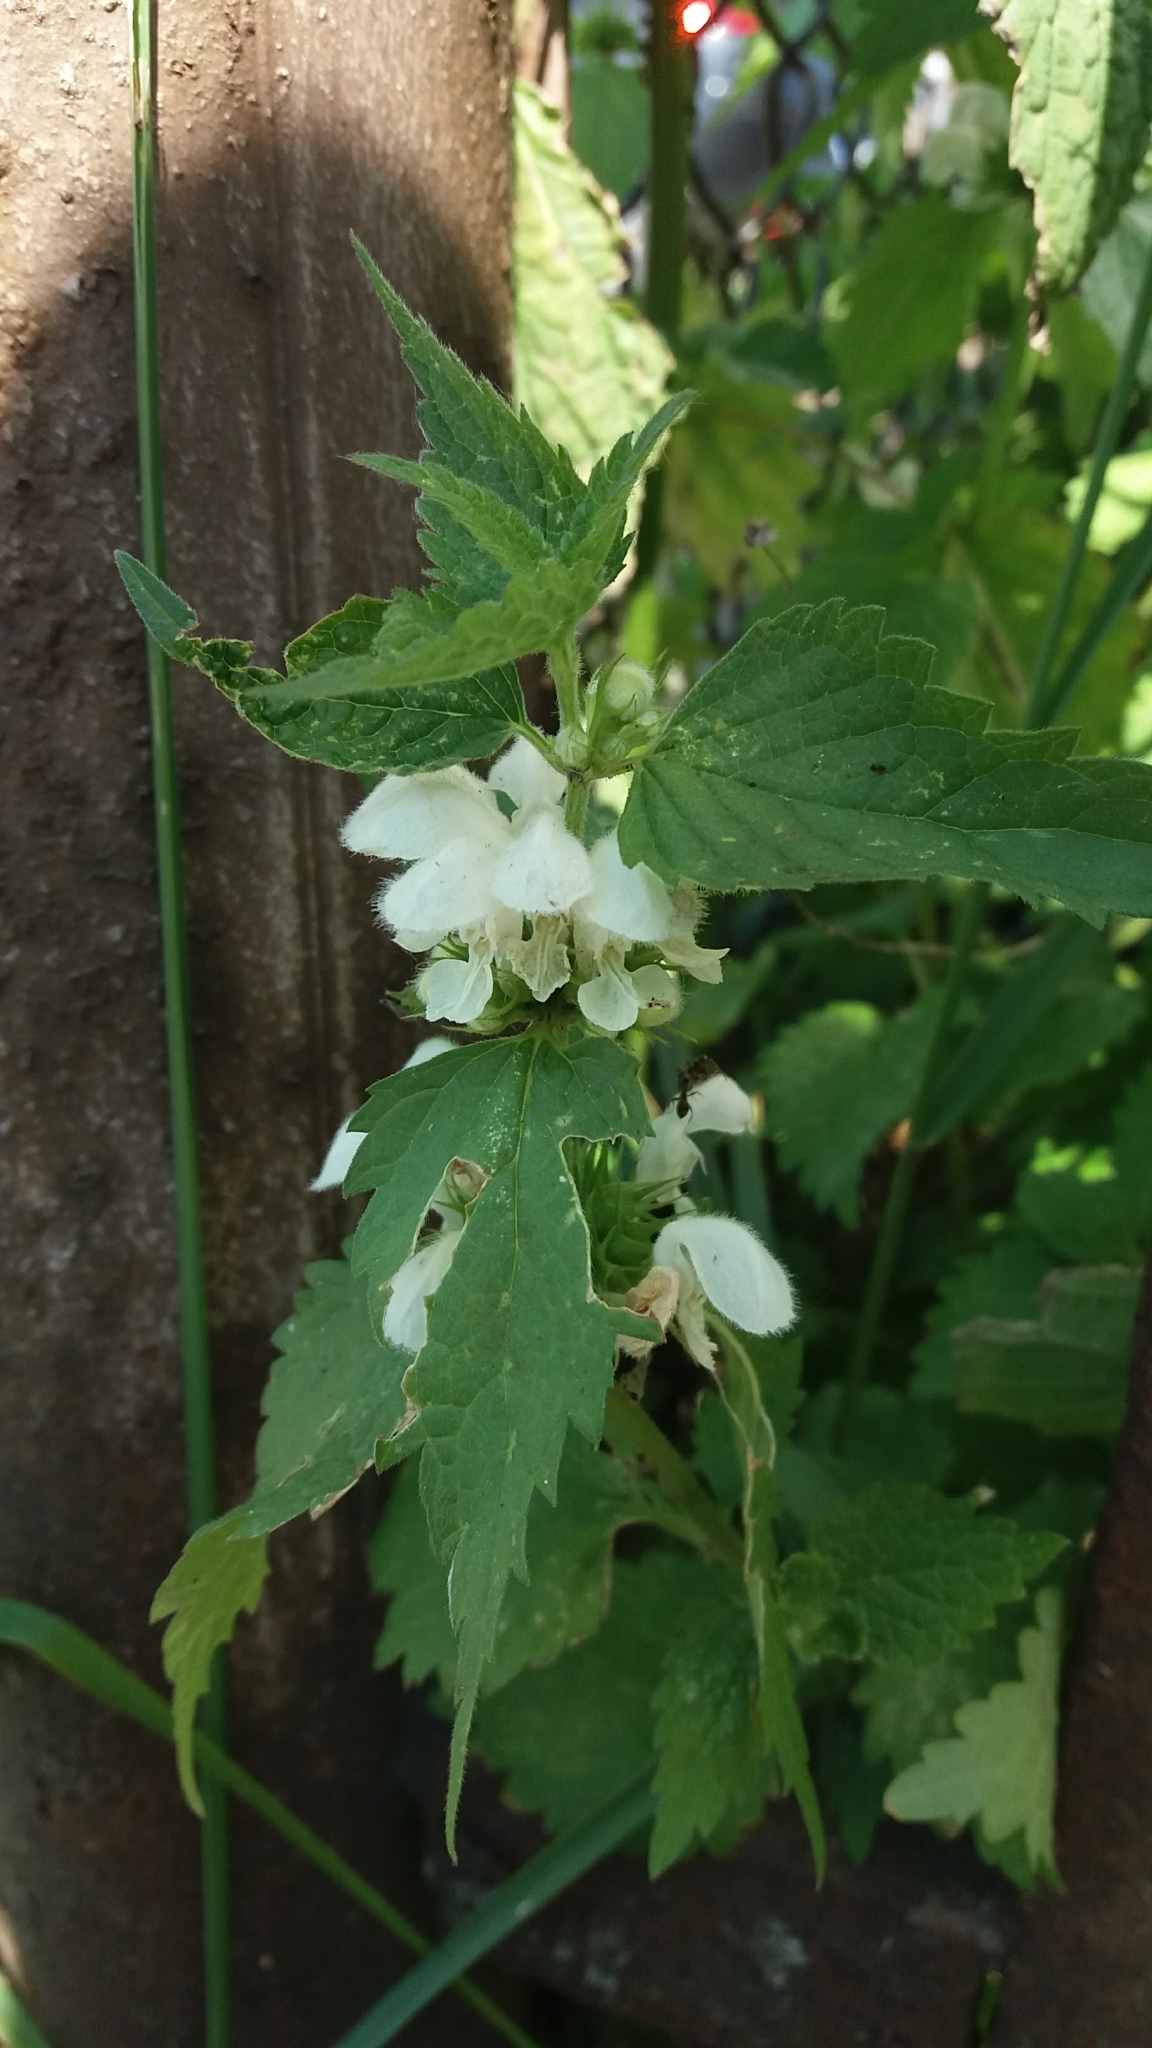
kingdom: Plantae
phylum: Tracheophyta
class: Magnoliopsida
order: Lamiales
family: Lamiaceae
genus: Lamium
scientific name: Lamium album
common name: White dead-nettle
